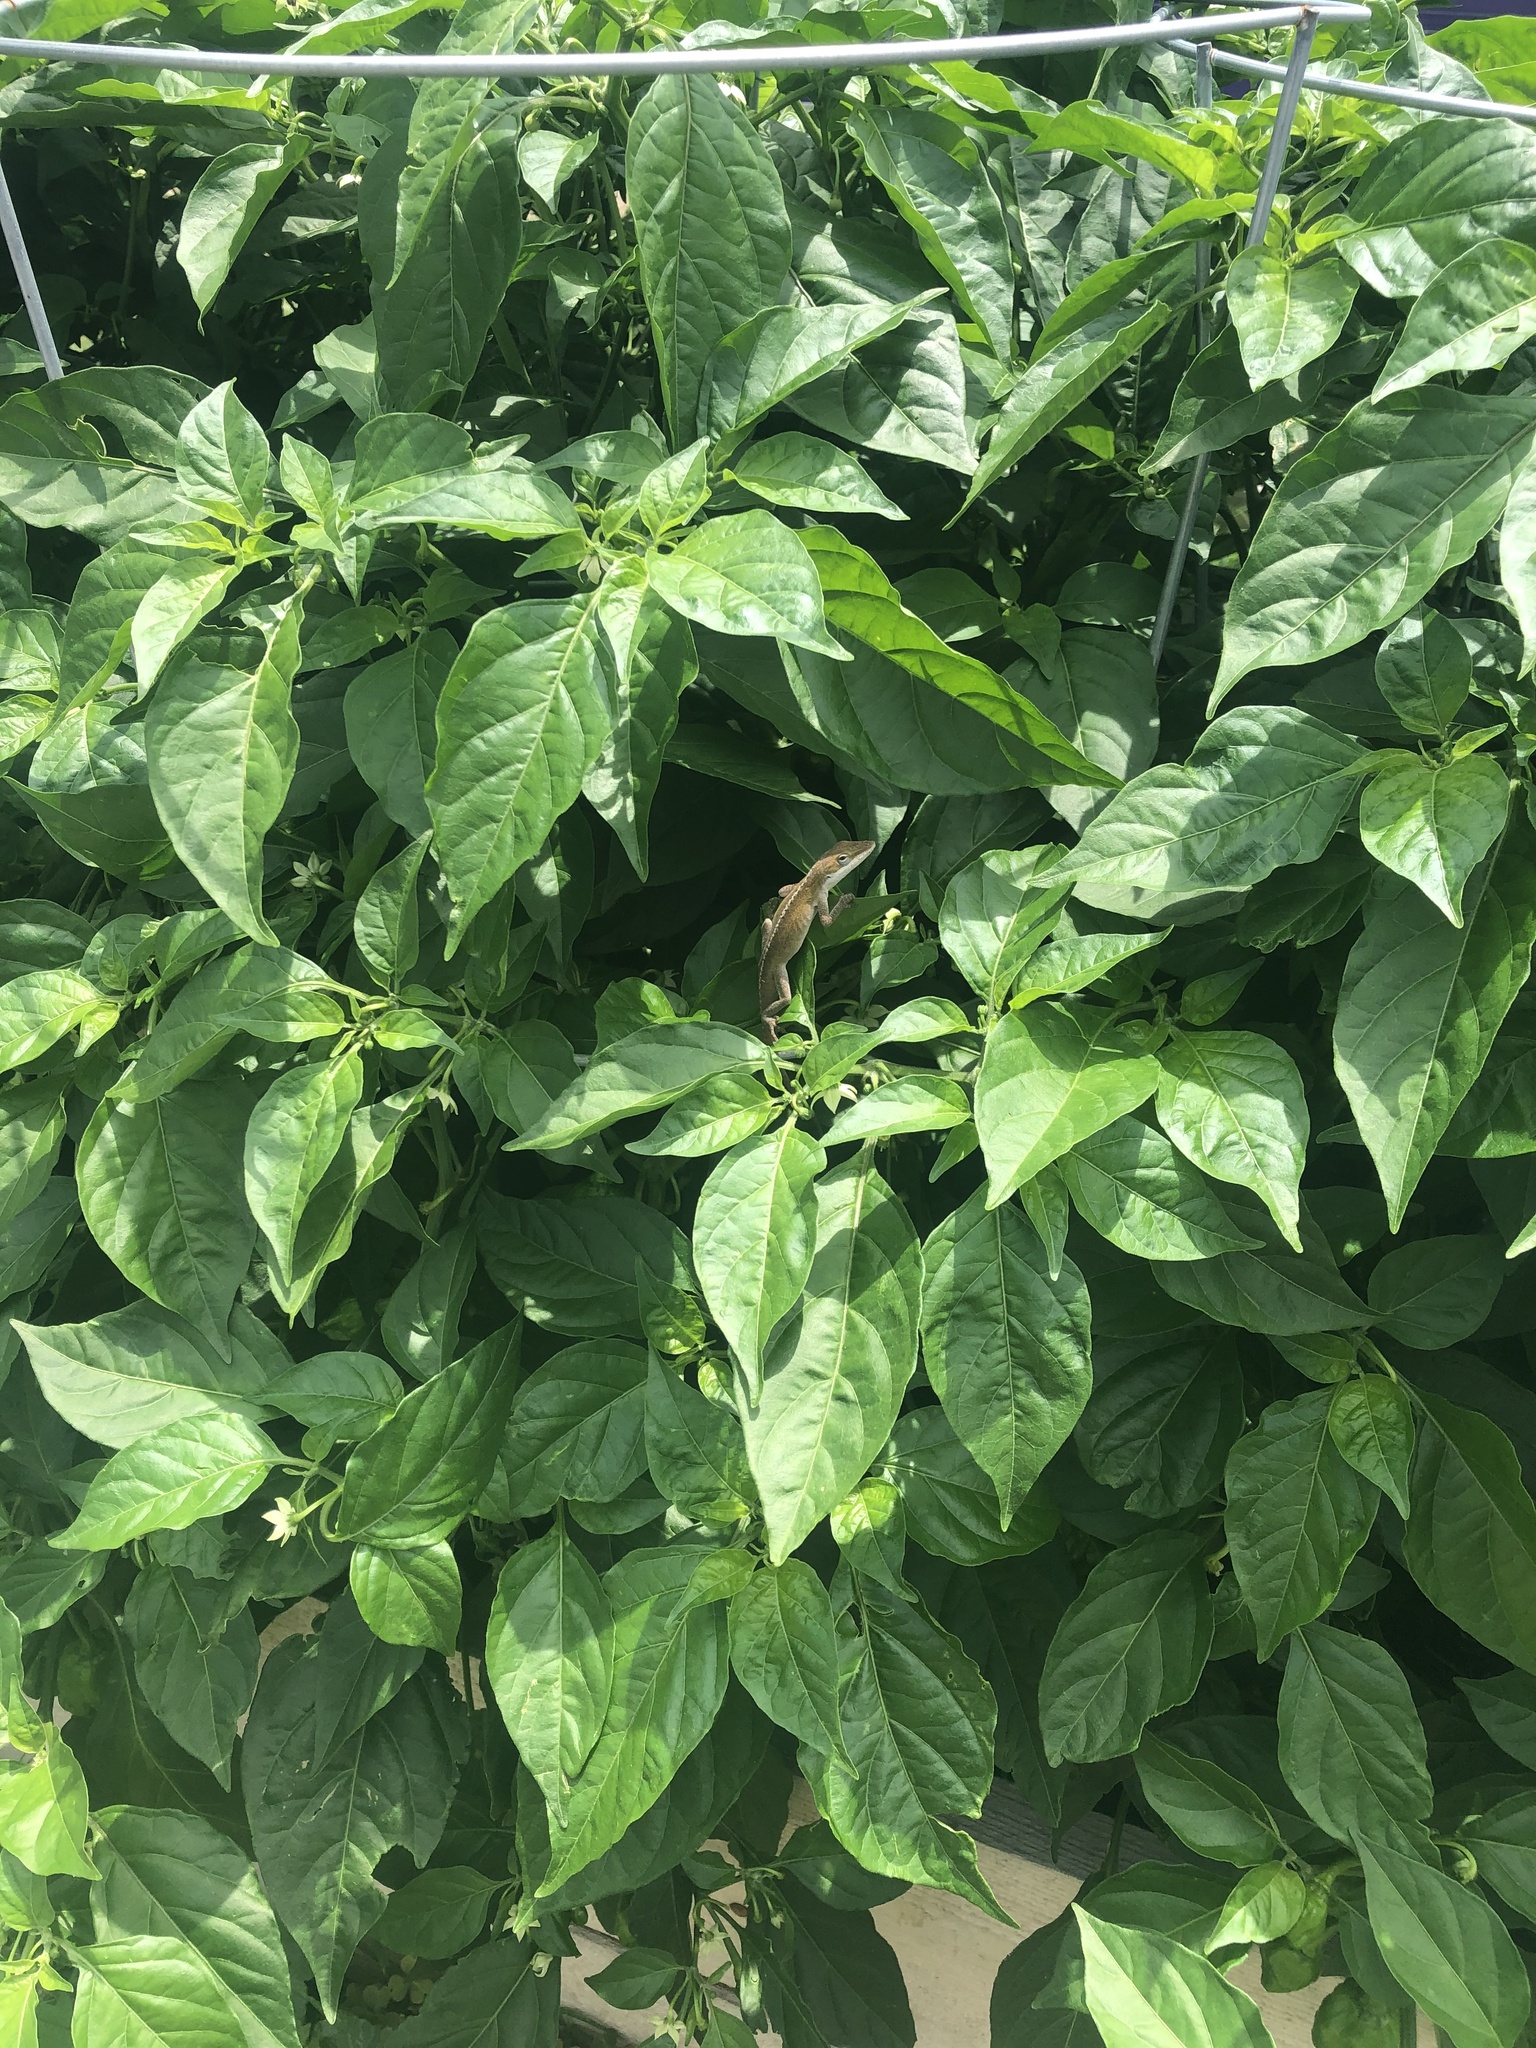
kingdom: Animalia
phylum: Chordata
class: Squamata
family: Dactyloidae
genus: Anolis
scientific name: Anolis carolinensis
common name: Green anole
